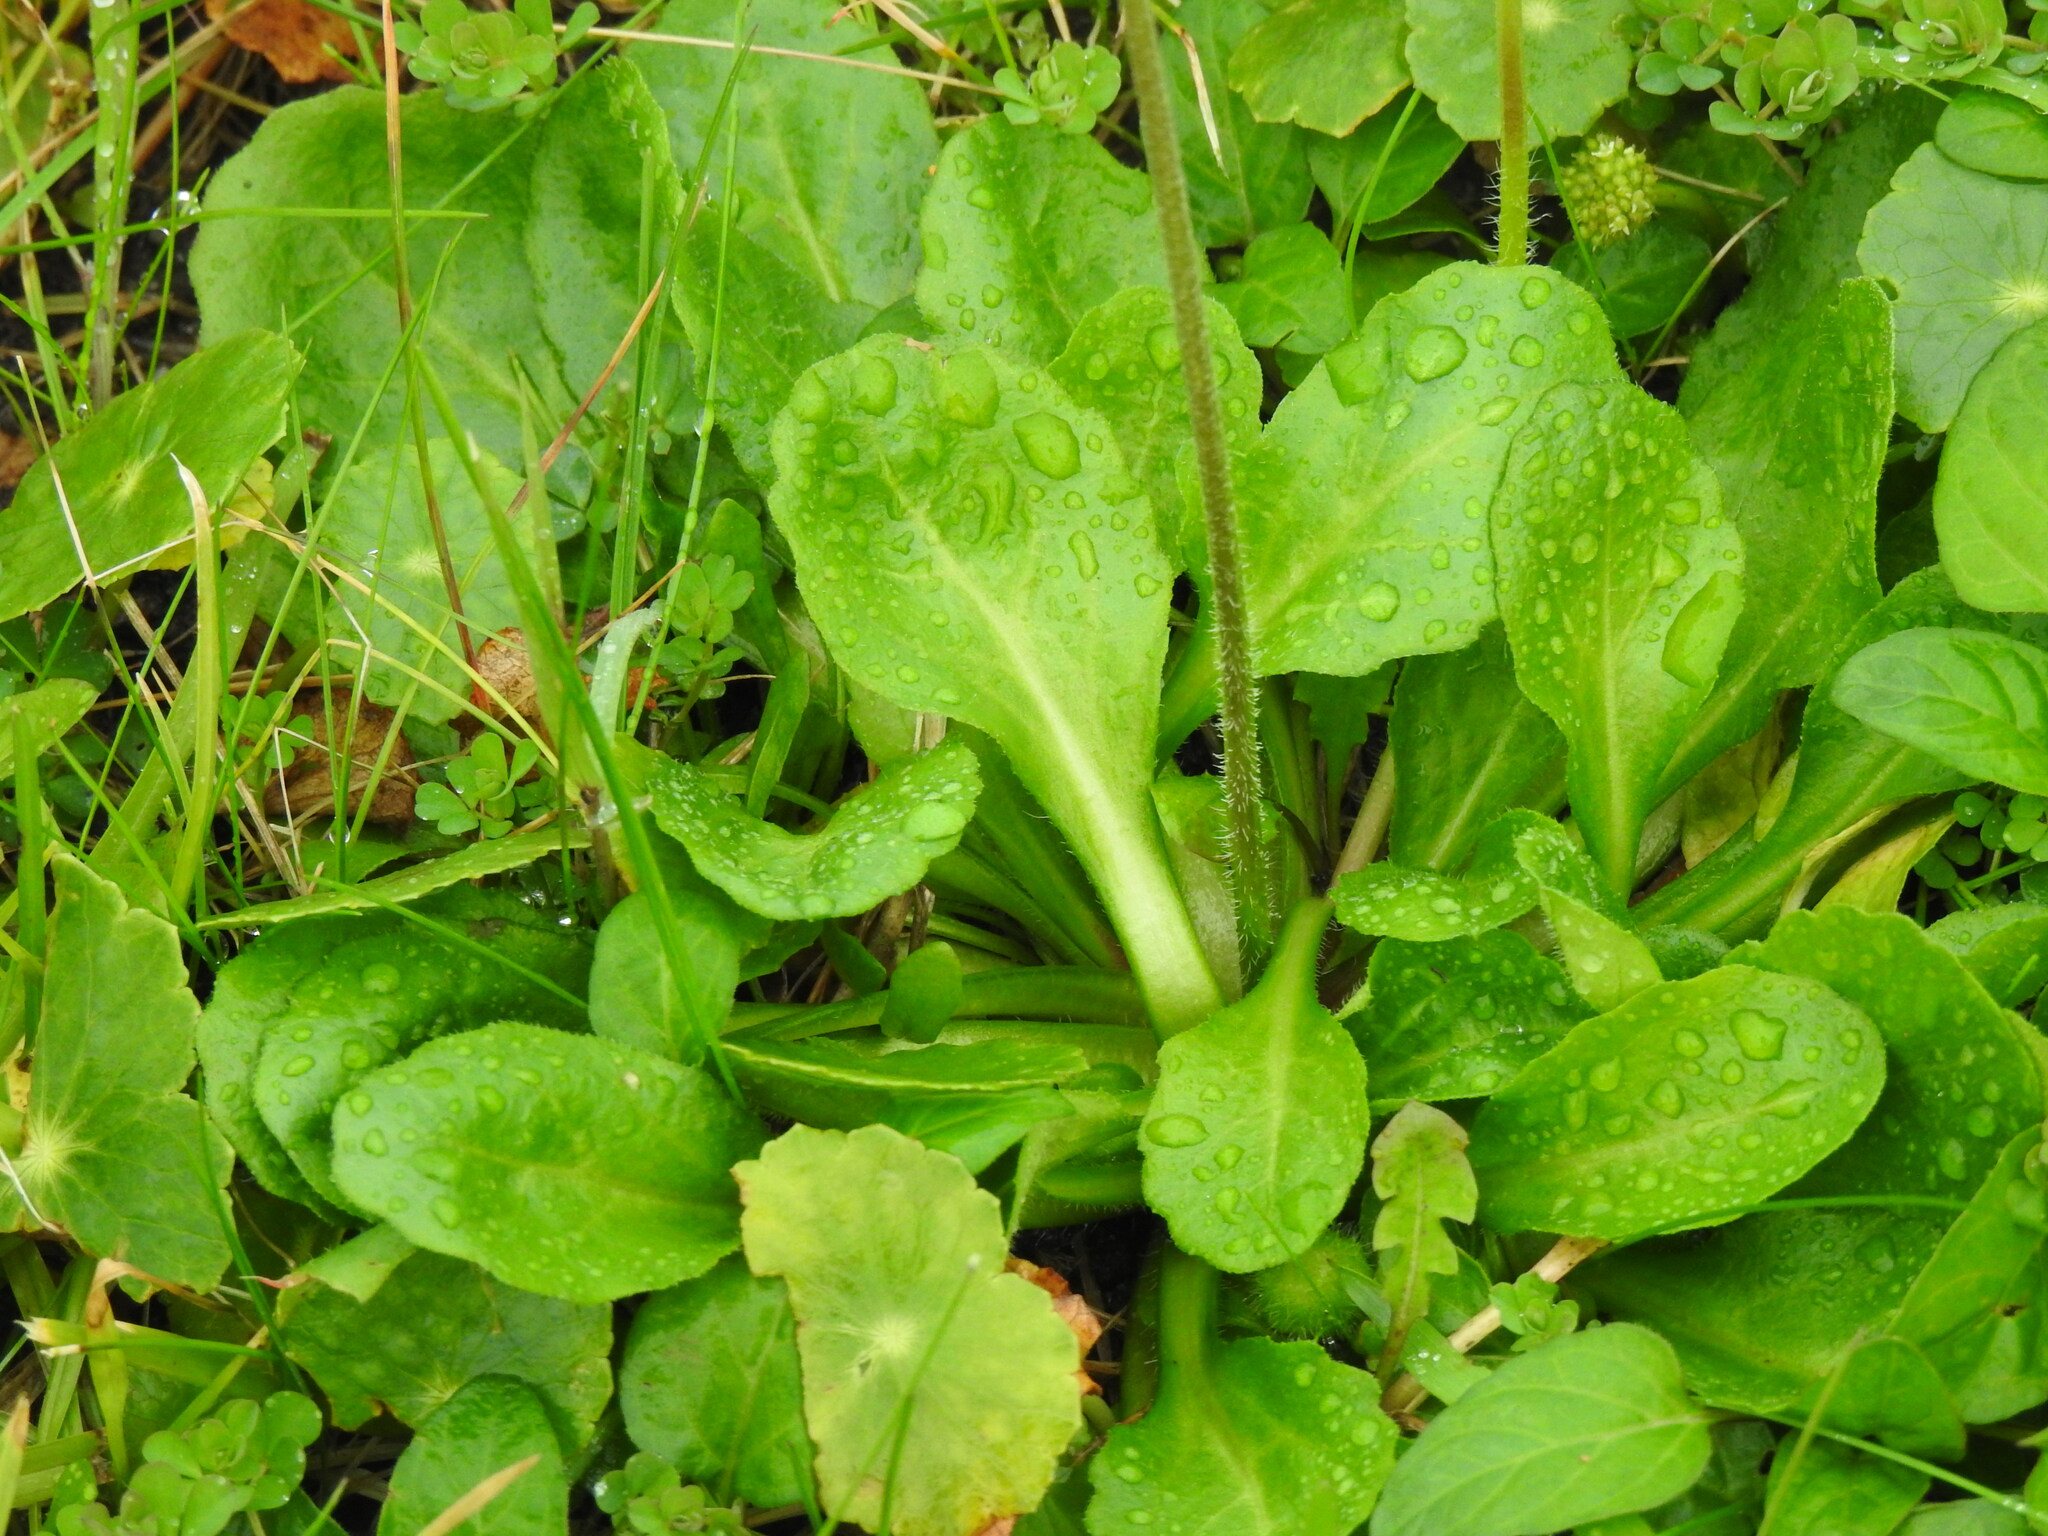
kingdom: Plantae
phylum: Tracheophyta
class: Magnoliopsida
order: Asterales
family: Asteraceae
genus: Bellis
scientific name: Bellis perennis
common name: Lawndaisy
